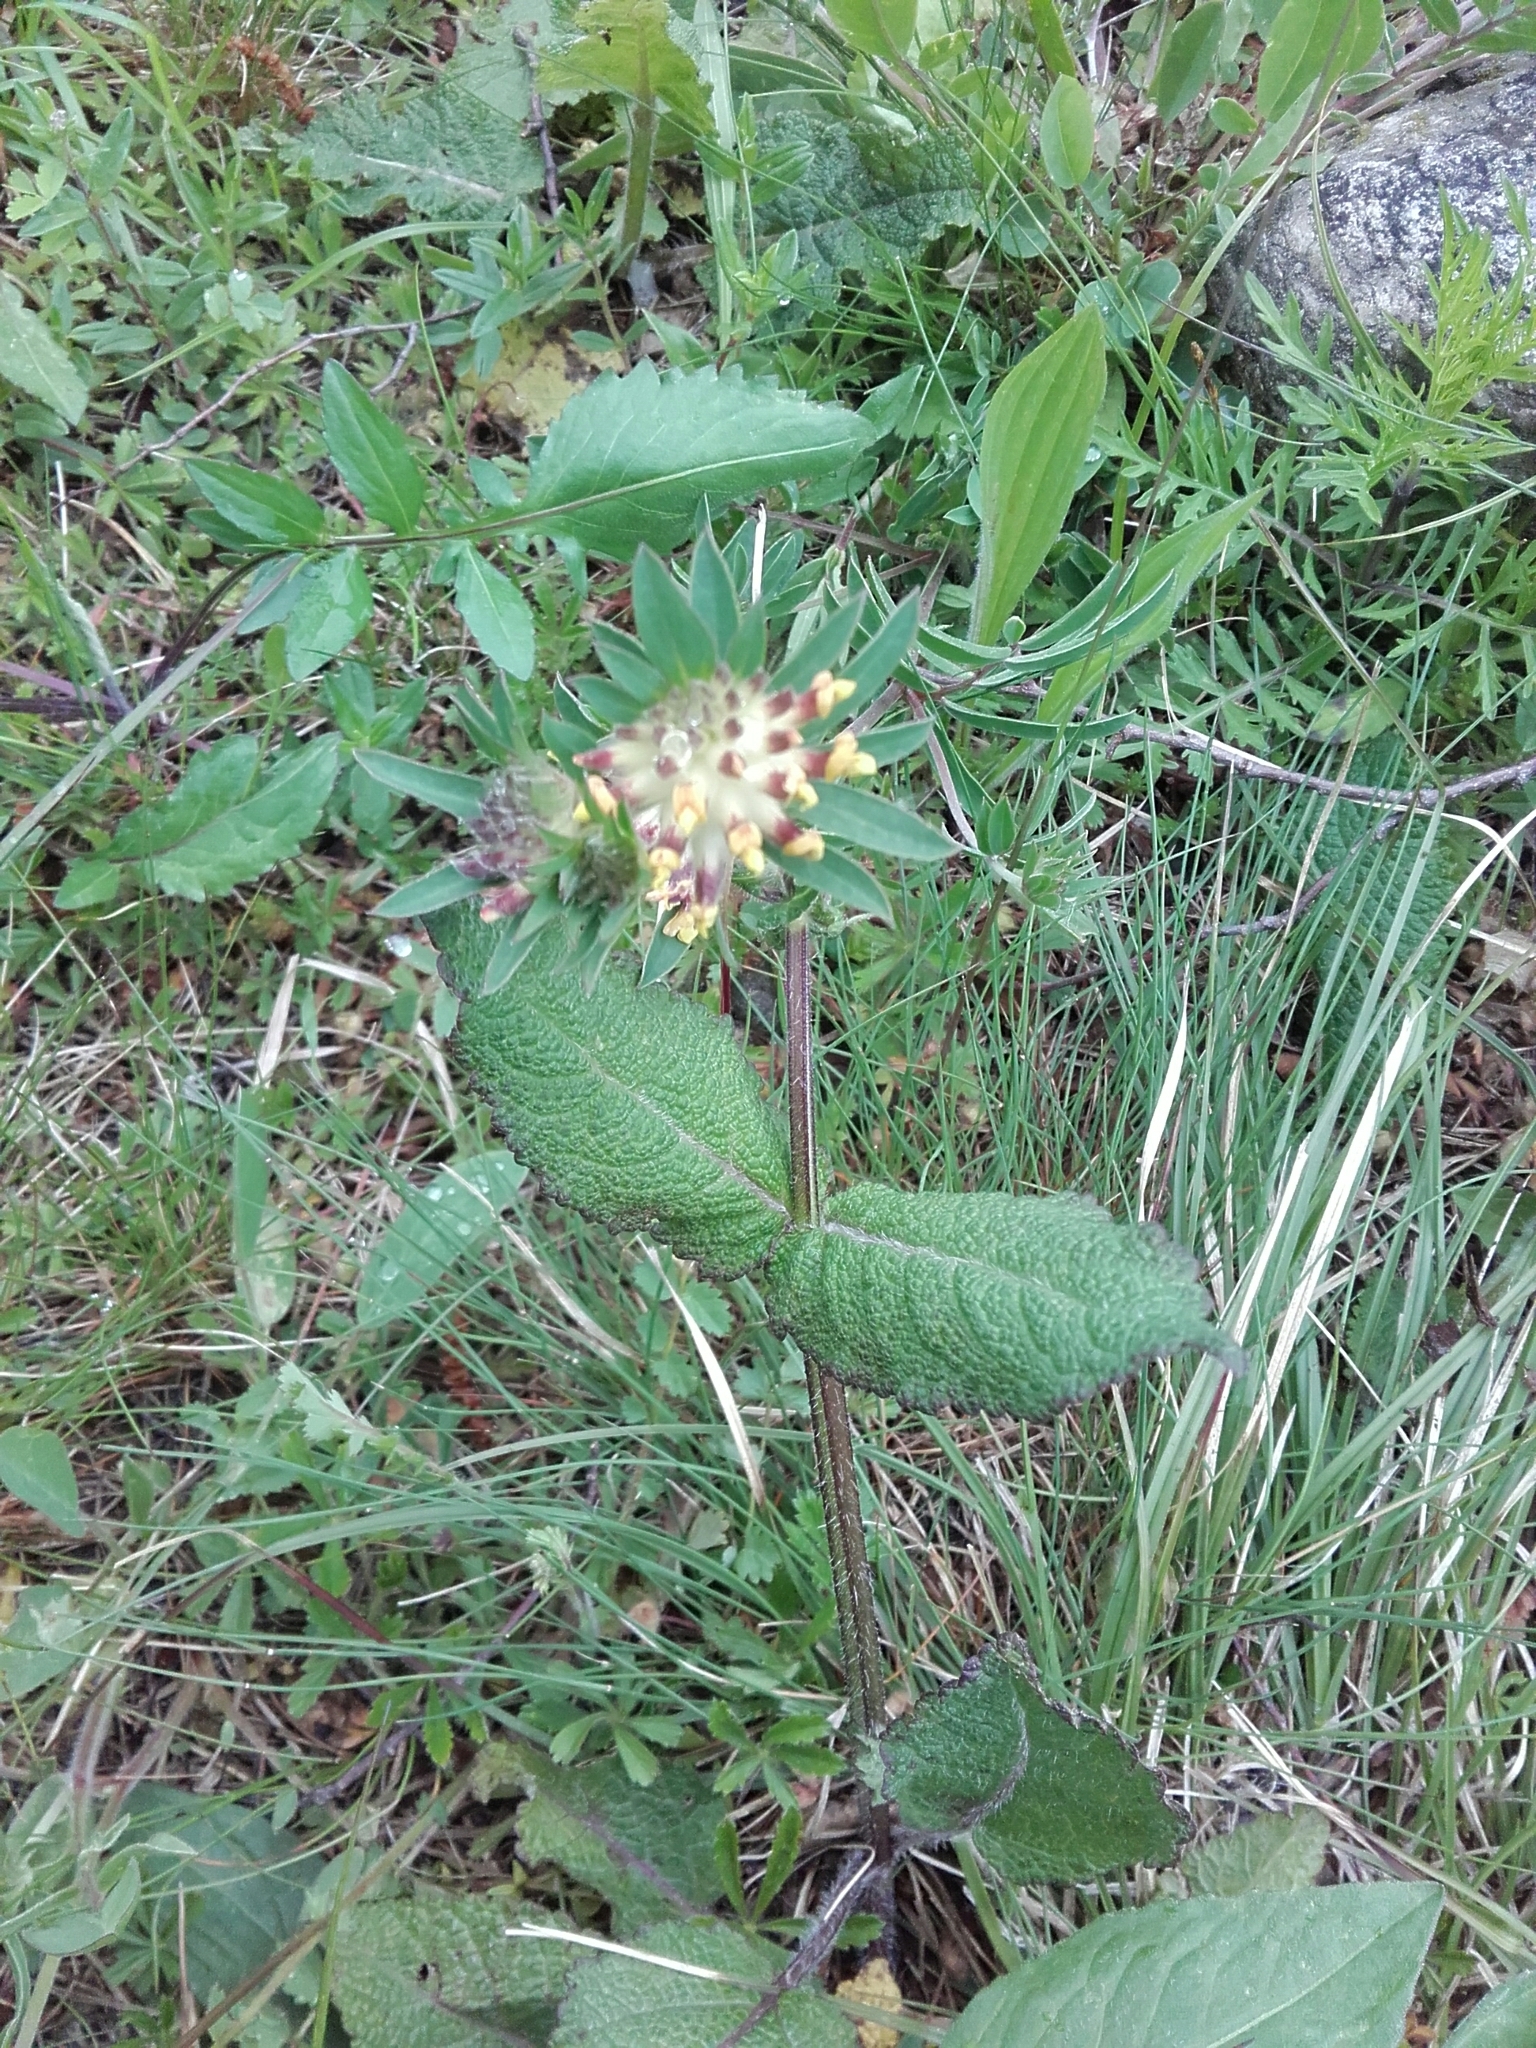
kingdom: Plantae
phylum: Tracheophyta
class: Magnoliopsida
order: Fabales
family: Fabaceae
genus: Anthyllis
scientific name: Anthyllis vulneraria
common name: Kidney vetch
